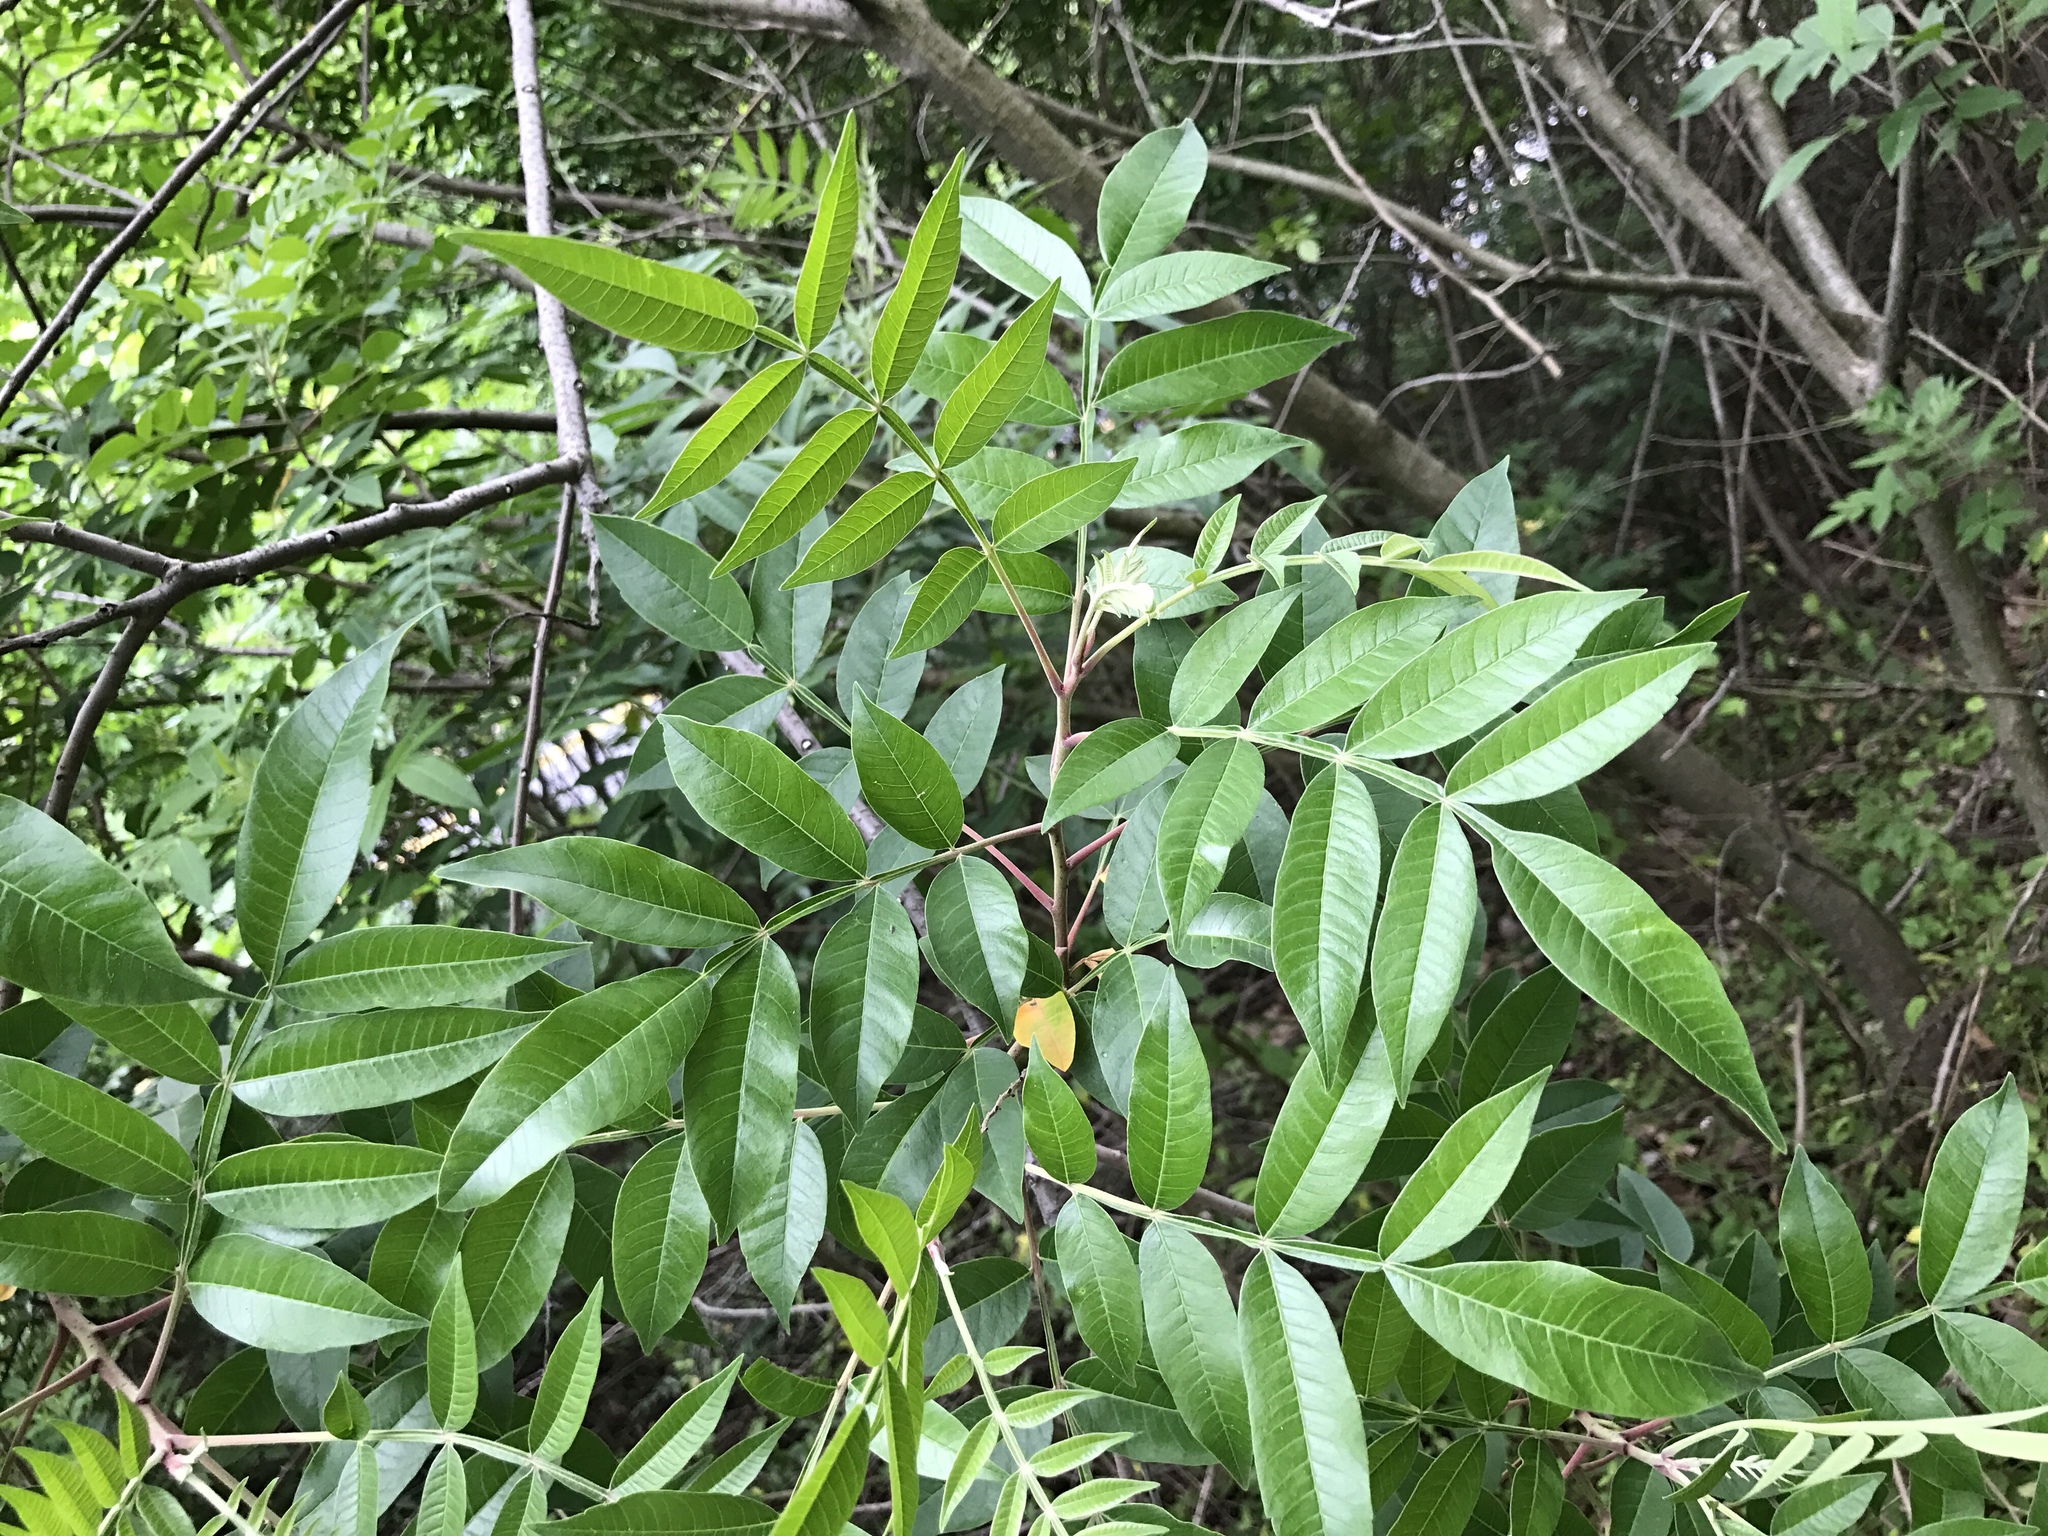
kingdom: Plantae
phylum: Tracheophyta
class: Magnoliopsida
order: Sapindales
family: Anacardiaceae
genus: Rhus
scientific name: Rhus copallina
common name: Shining sumac
